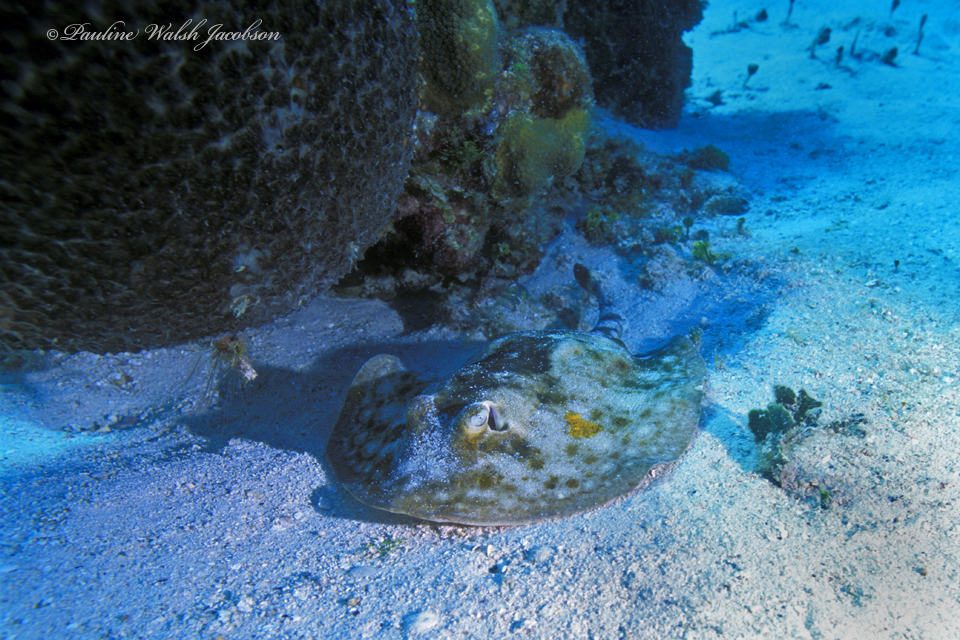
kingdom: Animalia
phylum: Chordata
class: Elasmobranchii
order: Myliobatiformes
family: Urotrygonidae
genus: Urobatis
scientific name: Urobatis jamaicensis
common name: Yellow stingray
